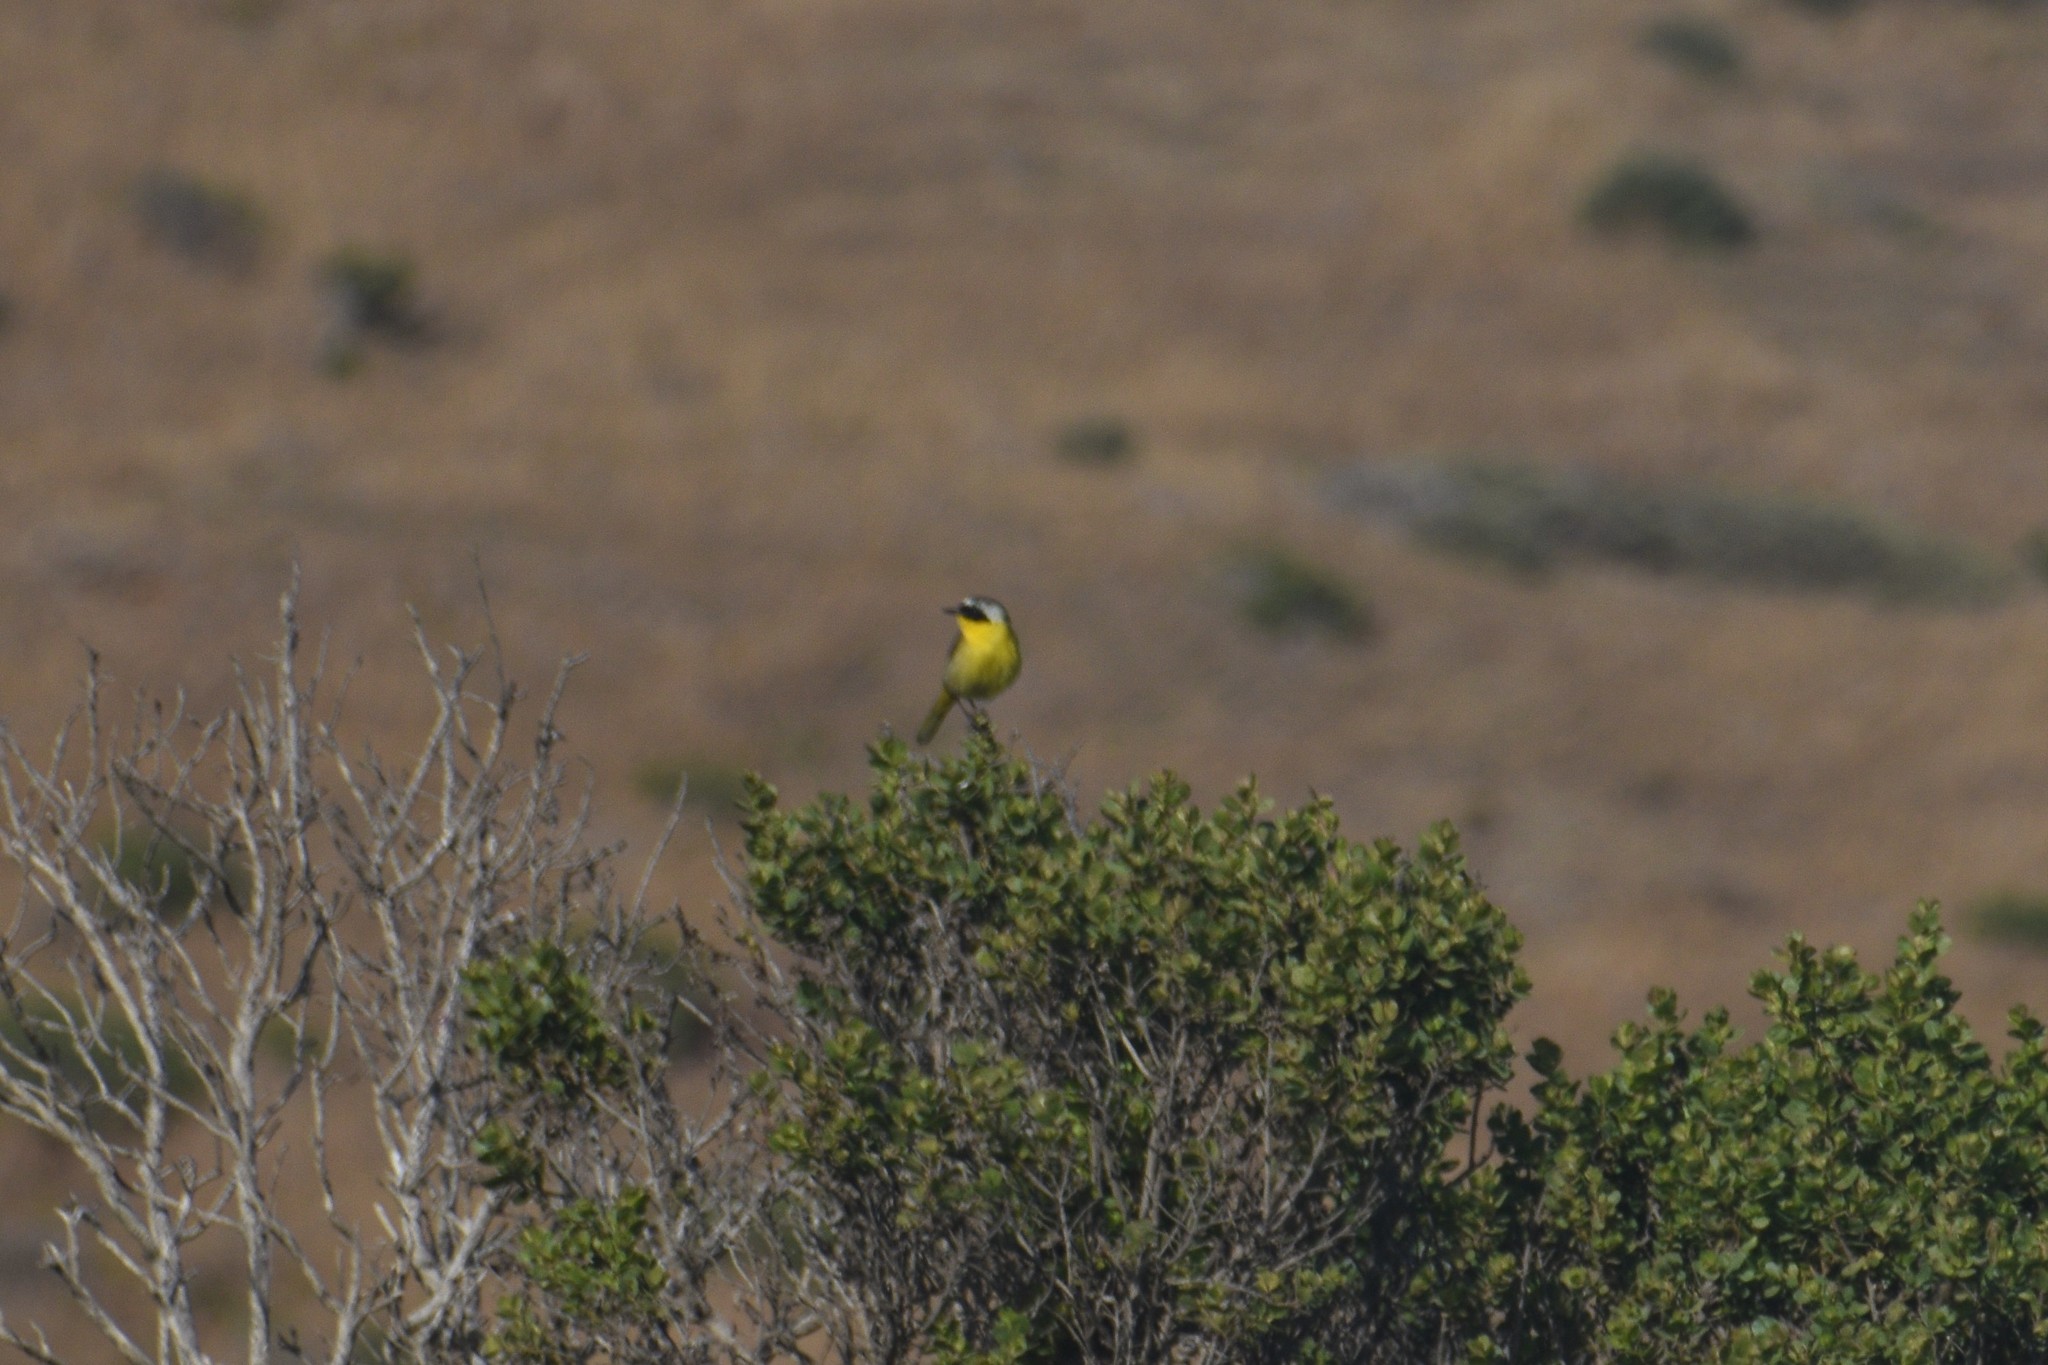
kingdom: Animalia
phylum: Chordata
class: Aves
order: Passeriformes
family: Parulidae
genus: Geothlypis
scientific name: Geothlypis trichas
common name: Common yellowthroat
